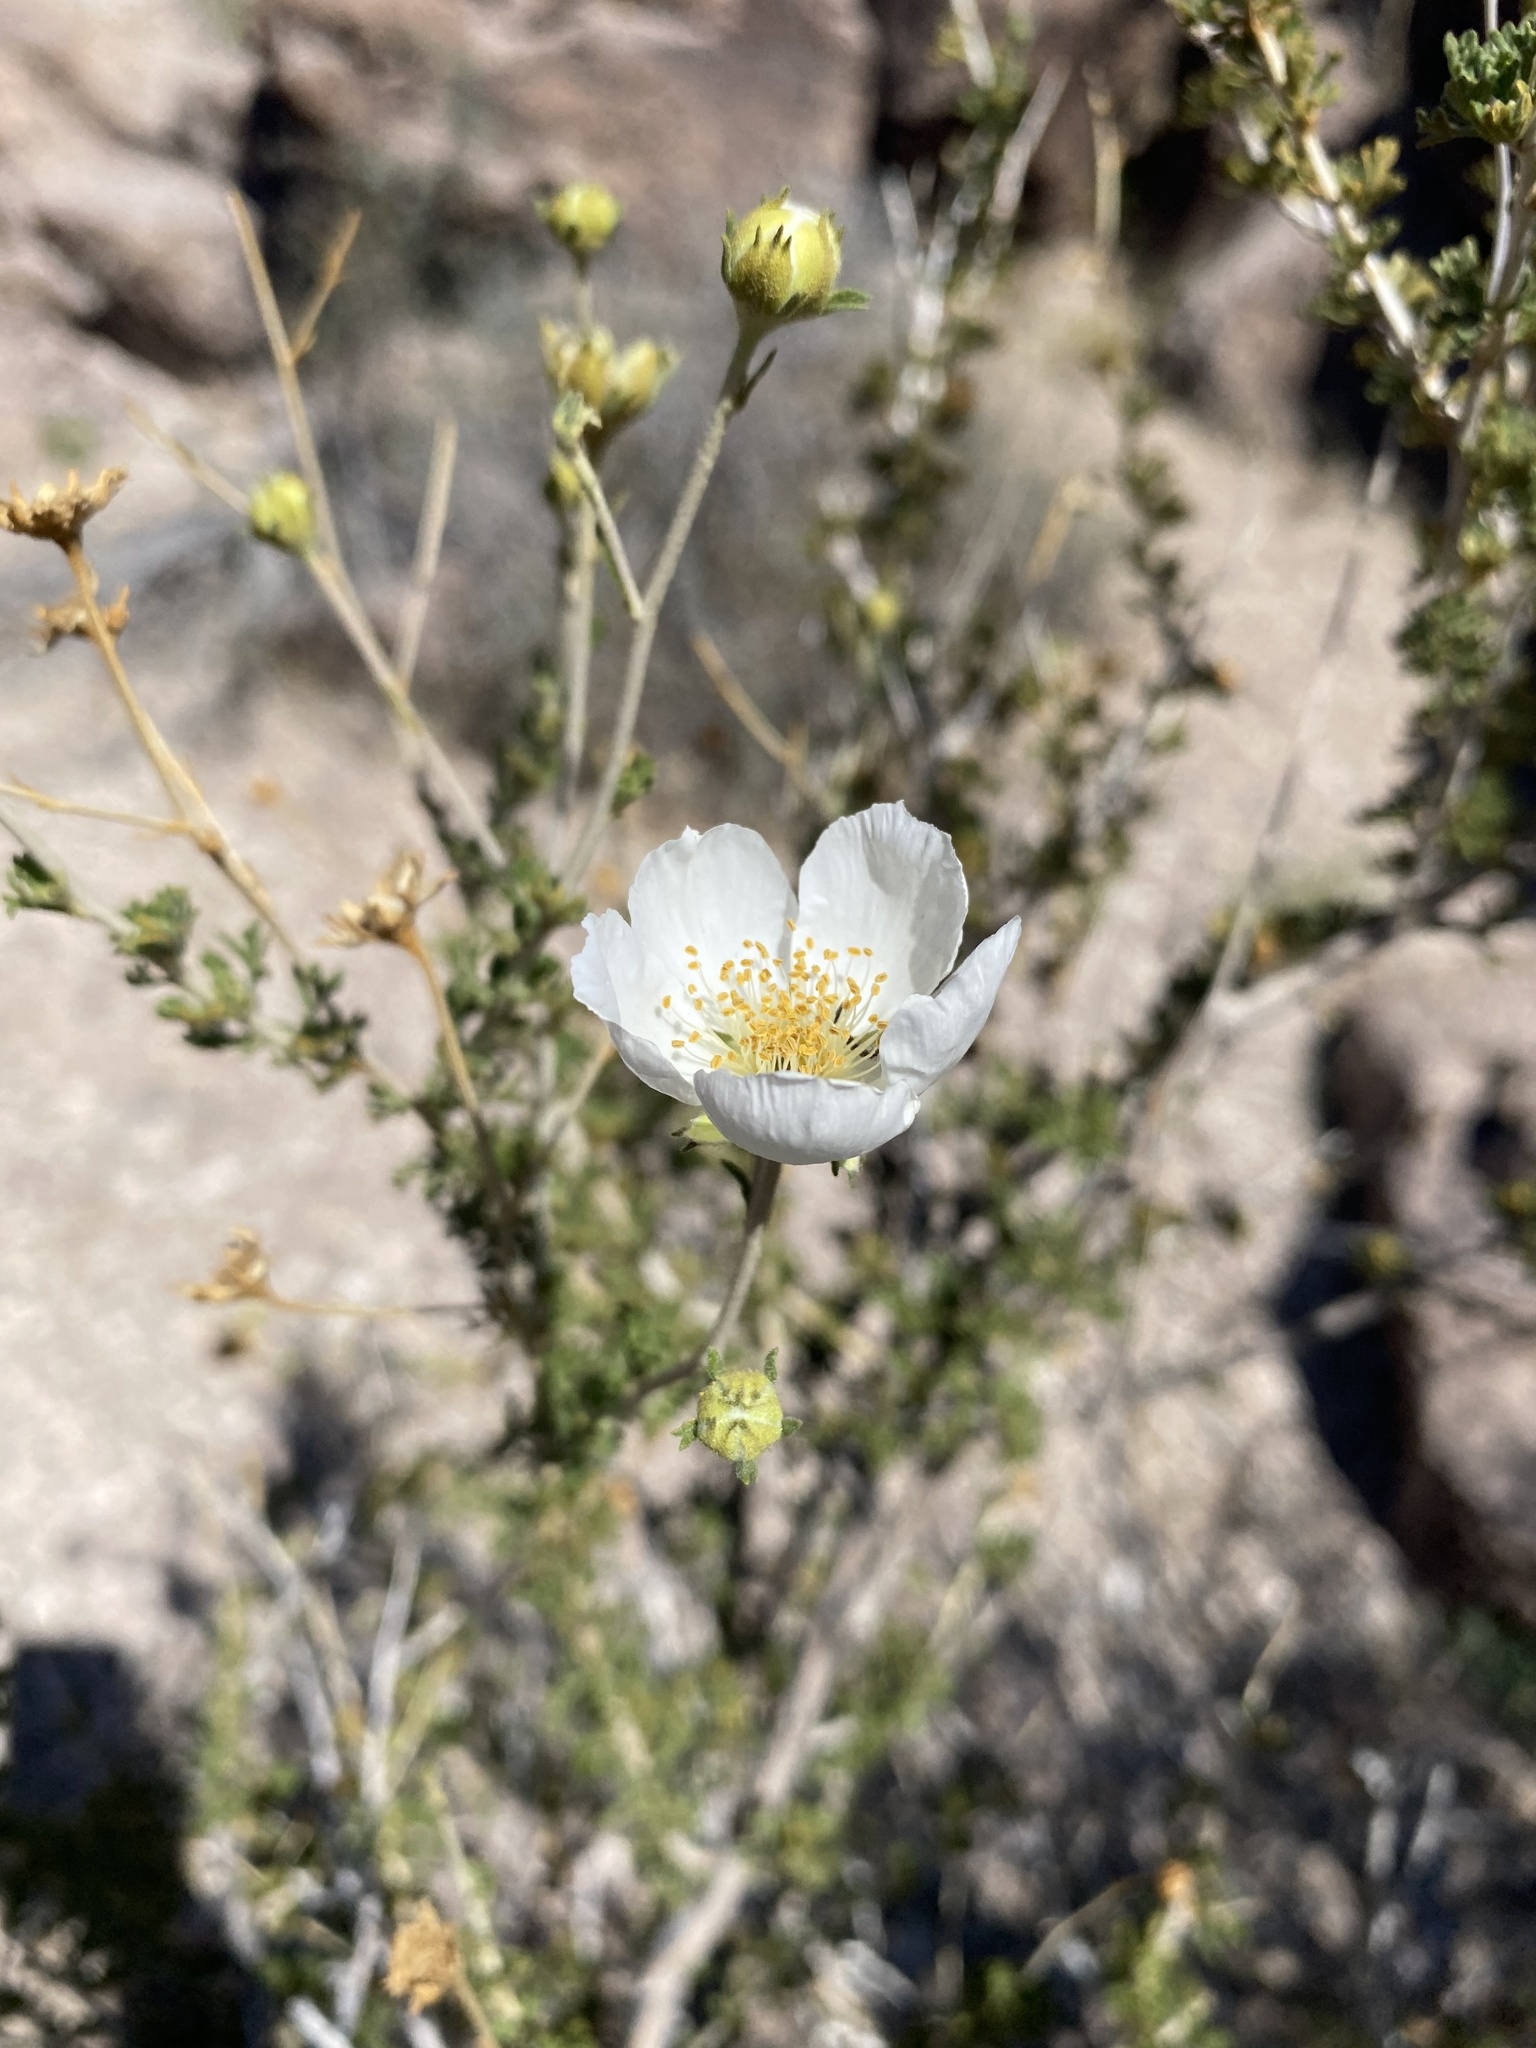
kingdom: Plantae
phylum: Tracheophyta
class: Magnoliopsida
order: Rosales
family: Rosaceae
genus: Fallugia
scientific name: Fallugia paradoxa
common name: Apache-plume
